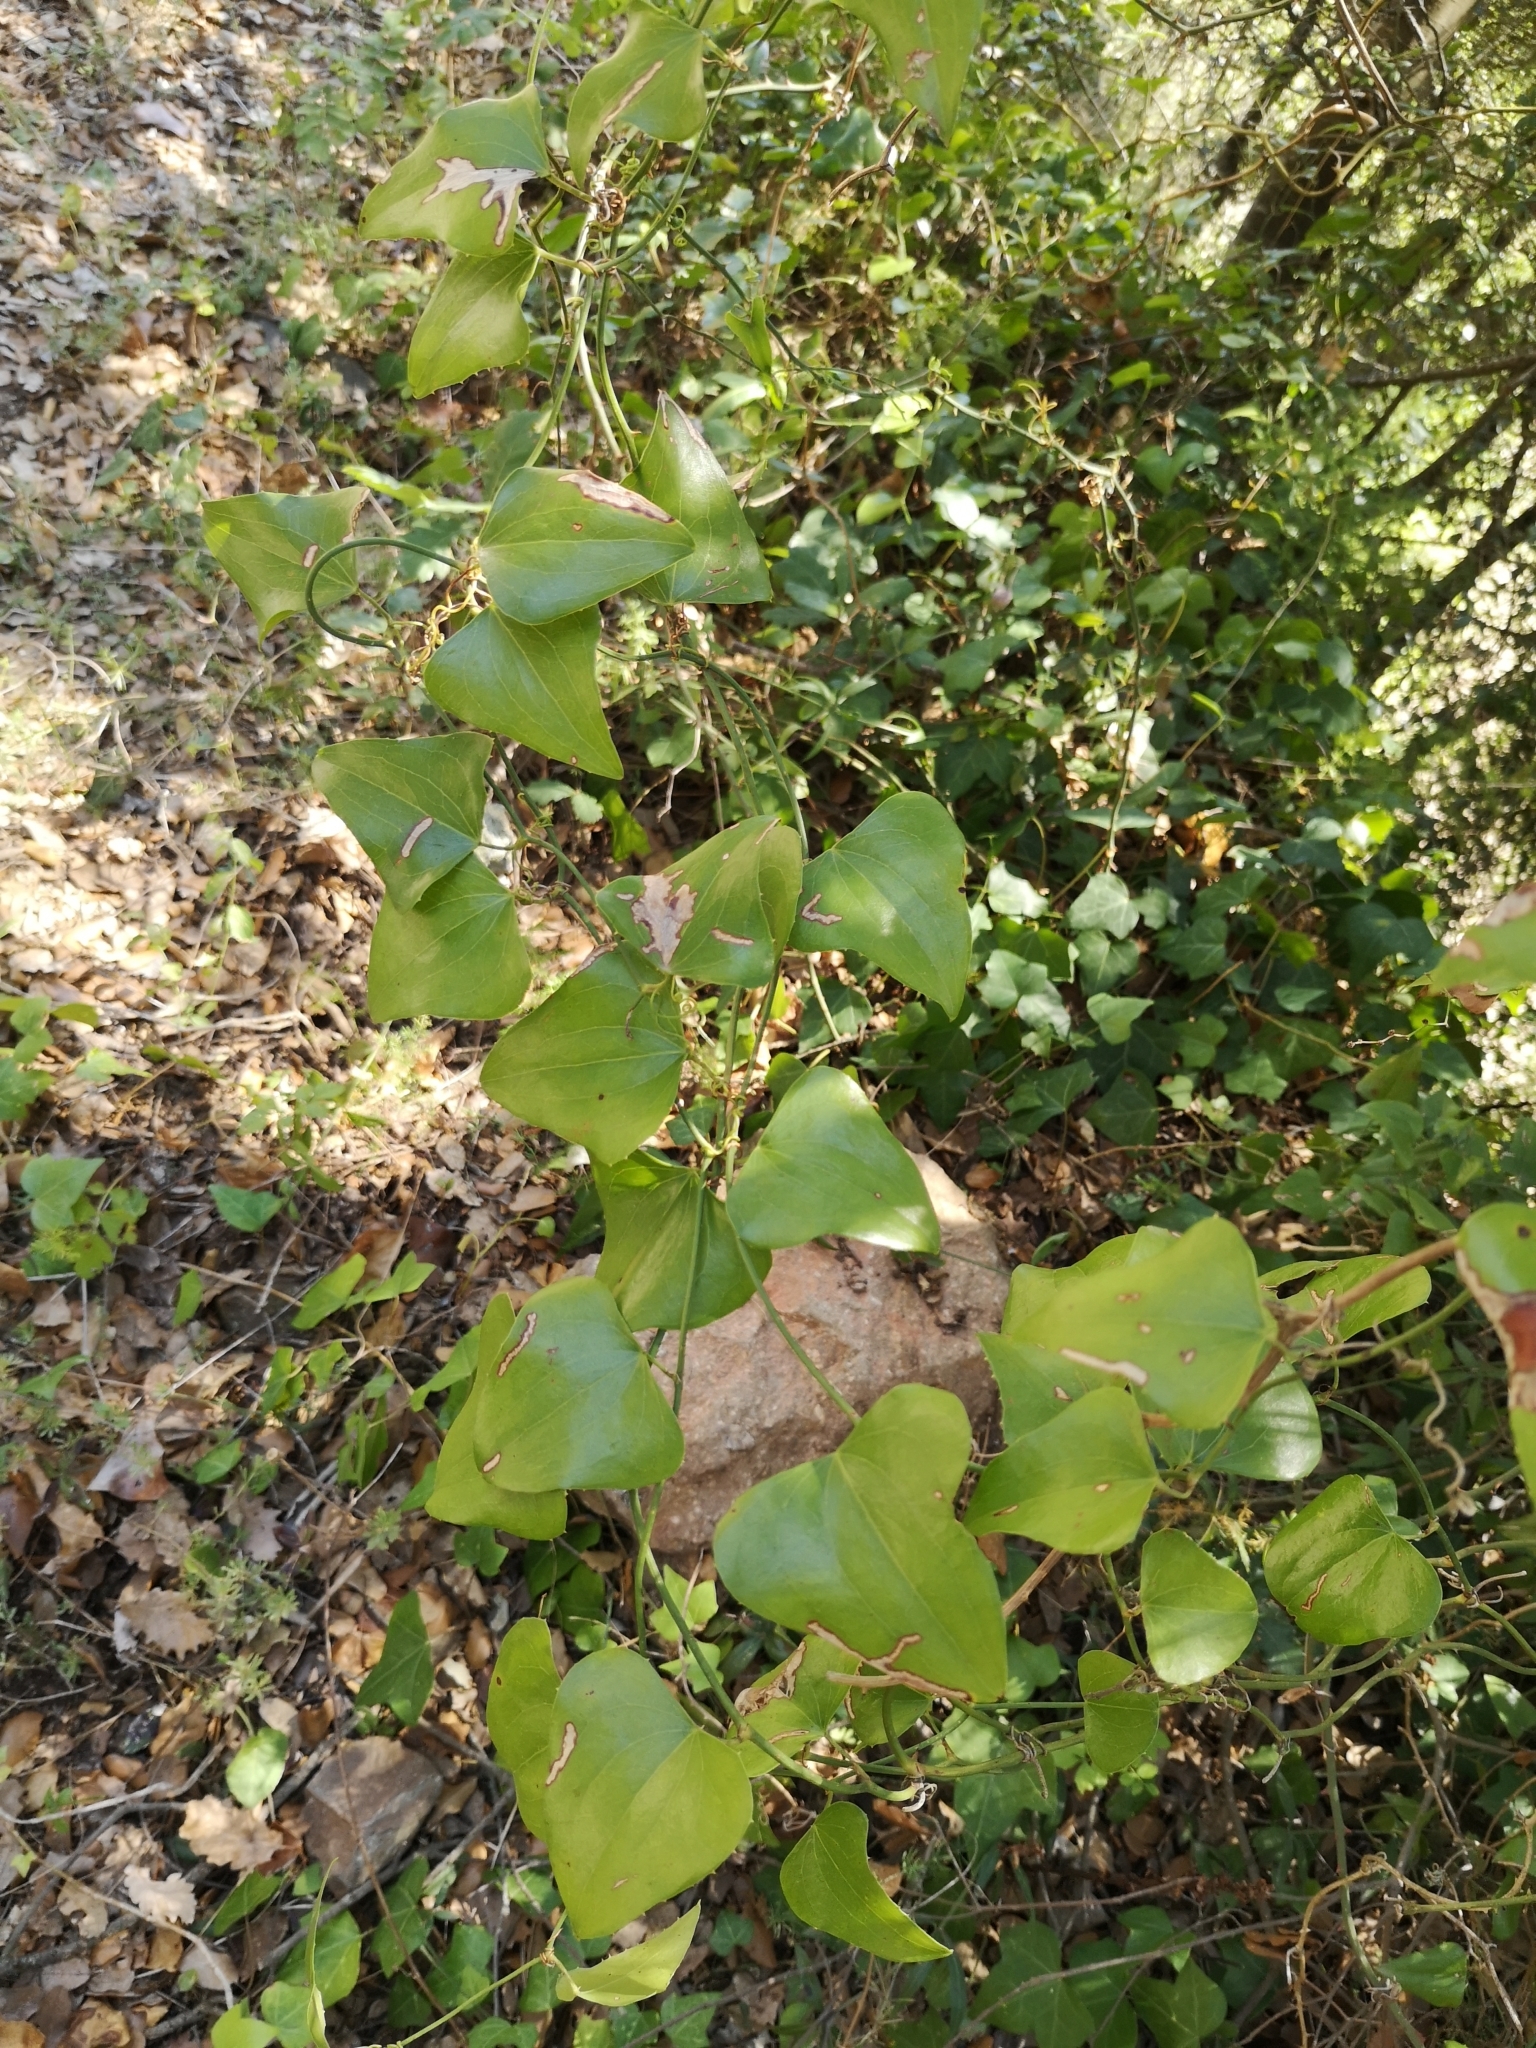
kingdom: Plantae
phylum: Tracheophyta
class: Liliopsida
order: Liliales
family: Smilacaceae
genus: Smilax
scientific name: Smilax aspera
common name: Common smilax
